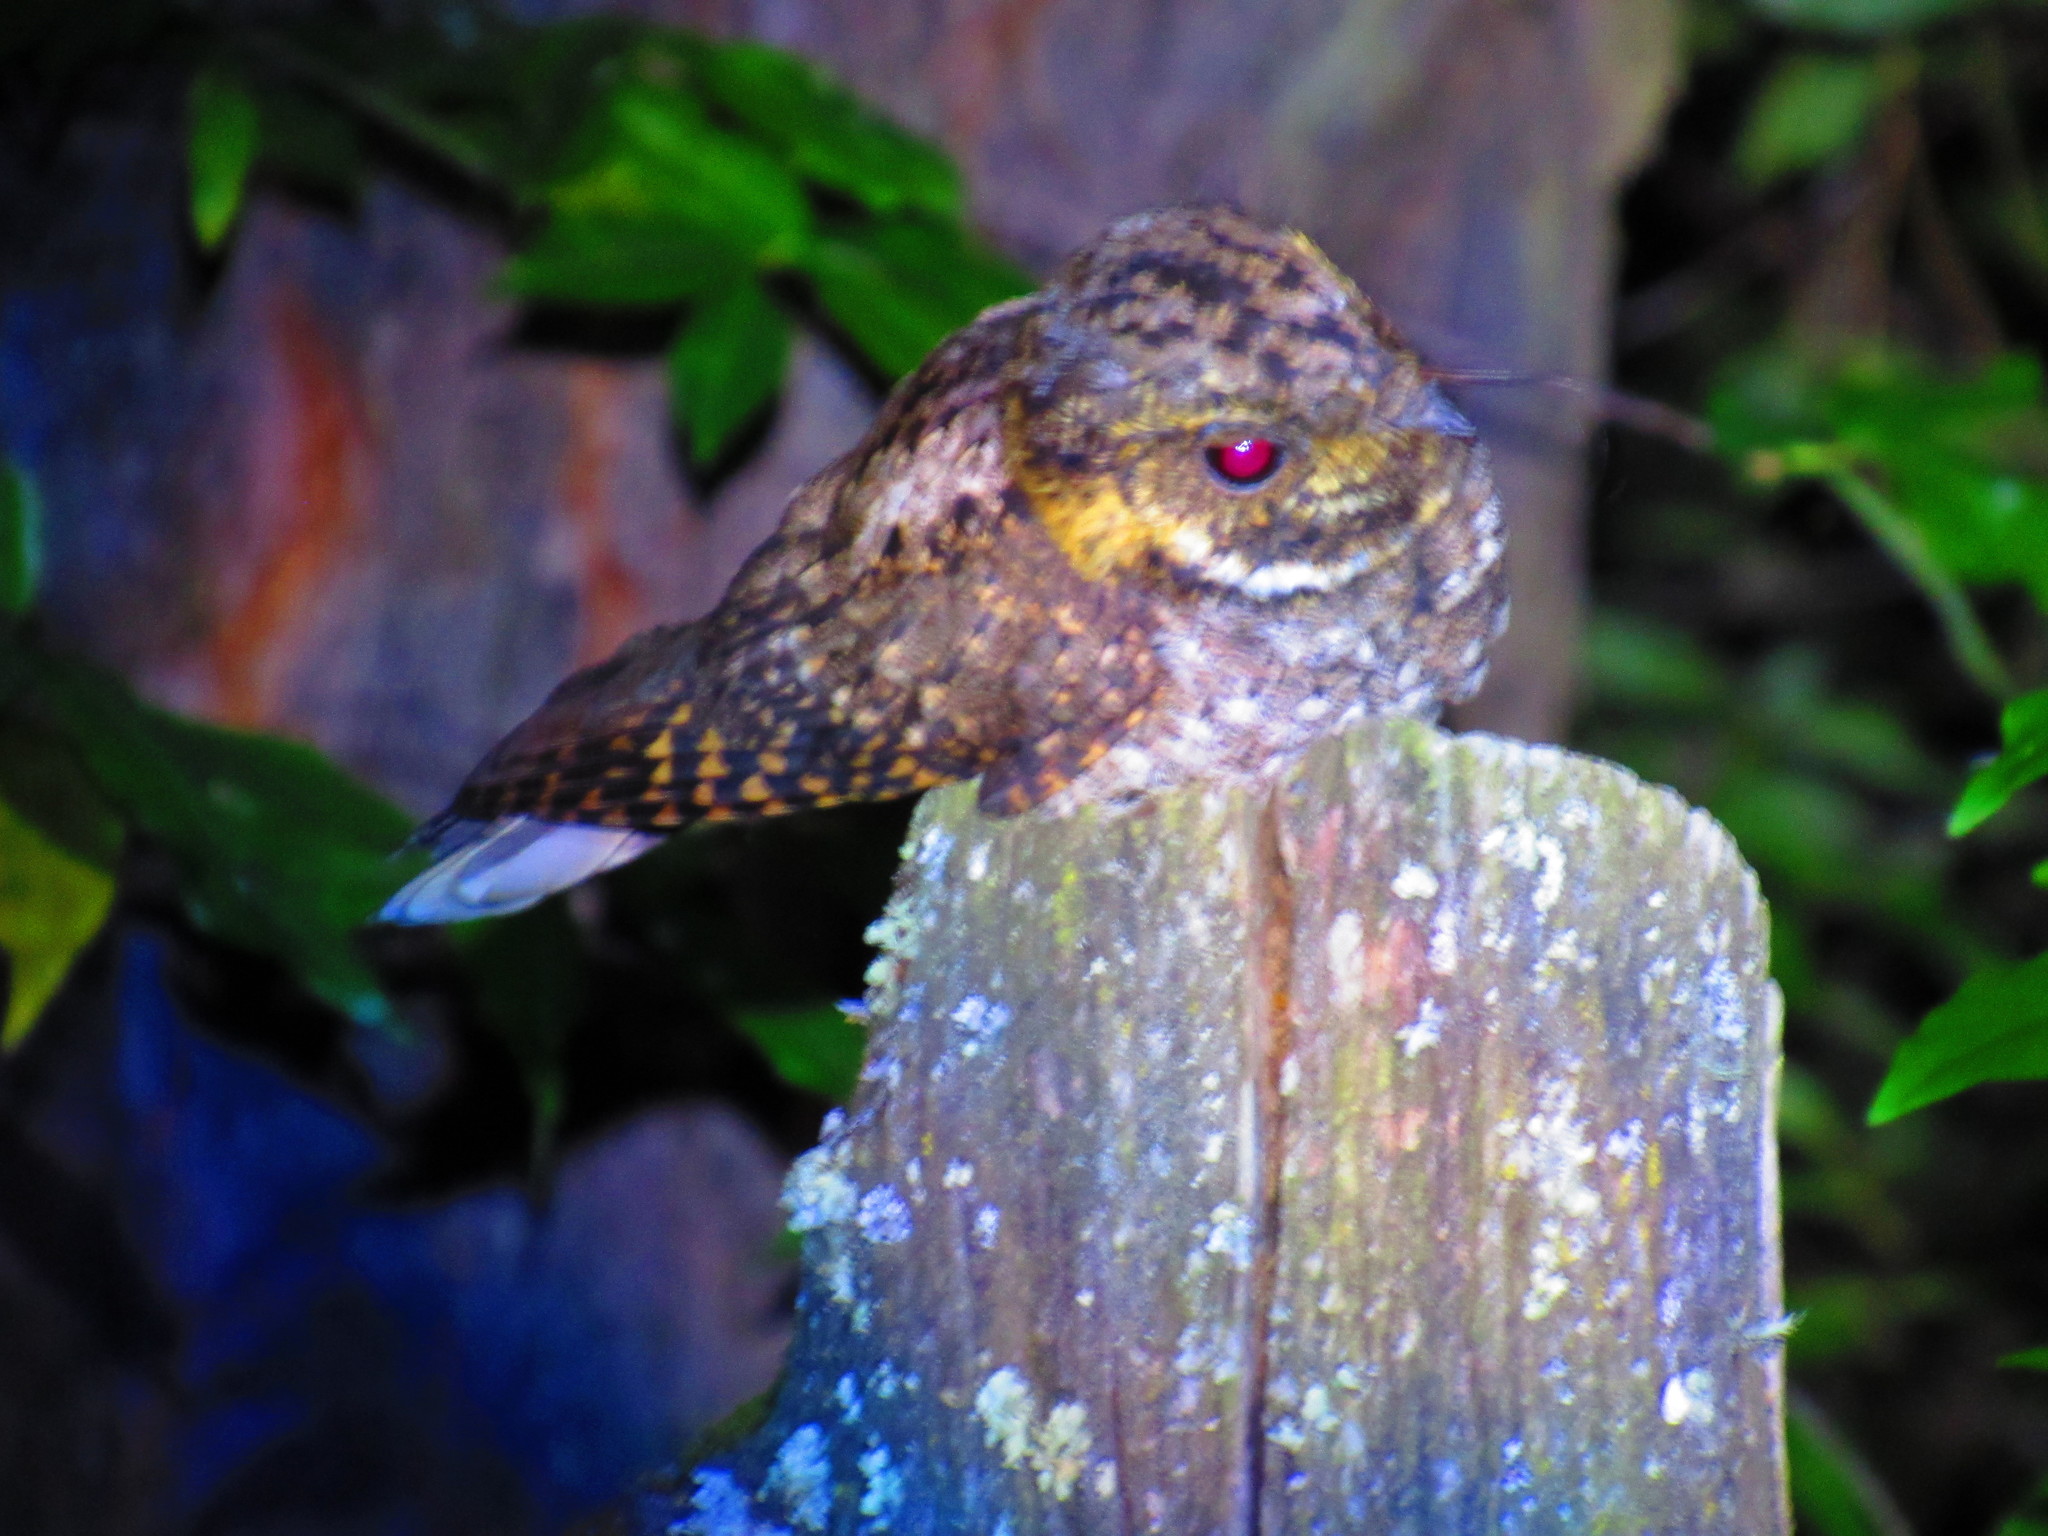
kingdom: Animalia
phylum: Chordata
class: Aves
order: Caprimulgiformes
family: Caprimulgidae
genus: Antrostomus
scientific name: Antrostomus ridgwayi
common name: Buff-collared nightjar
